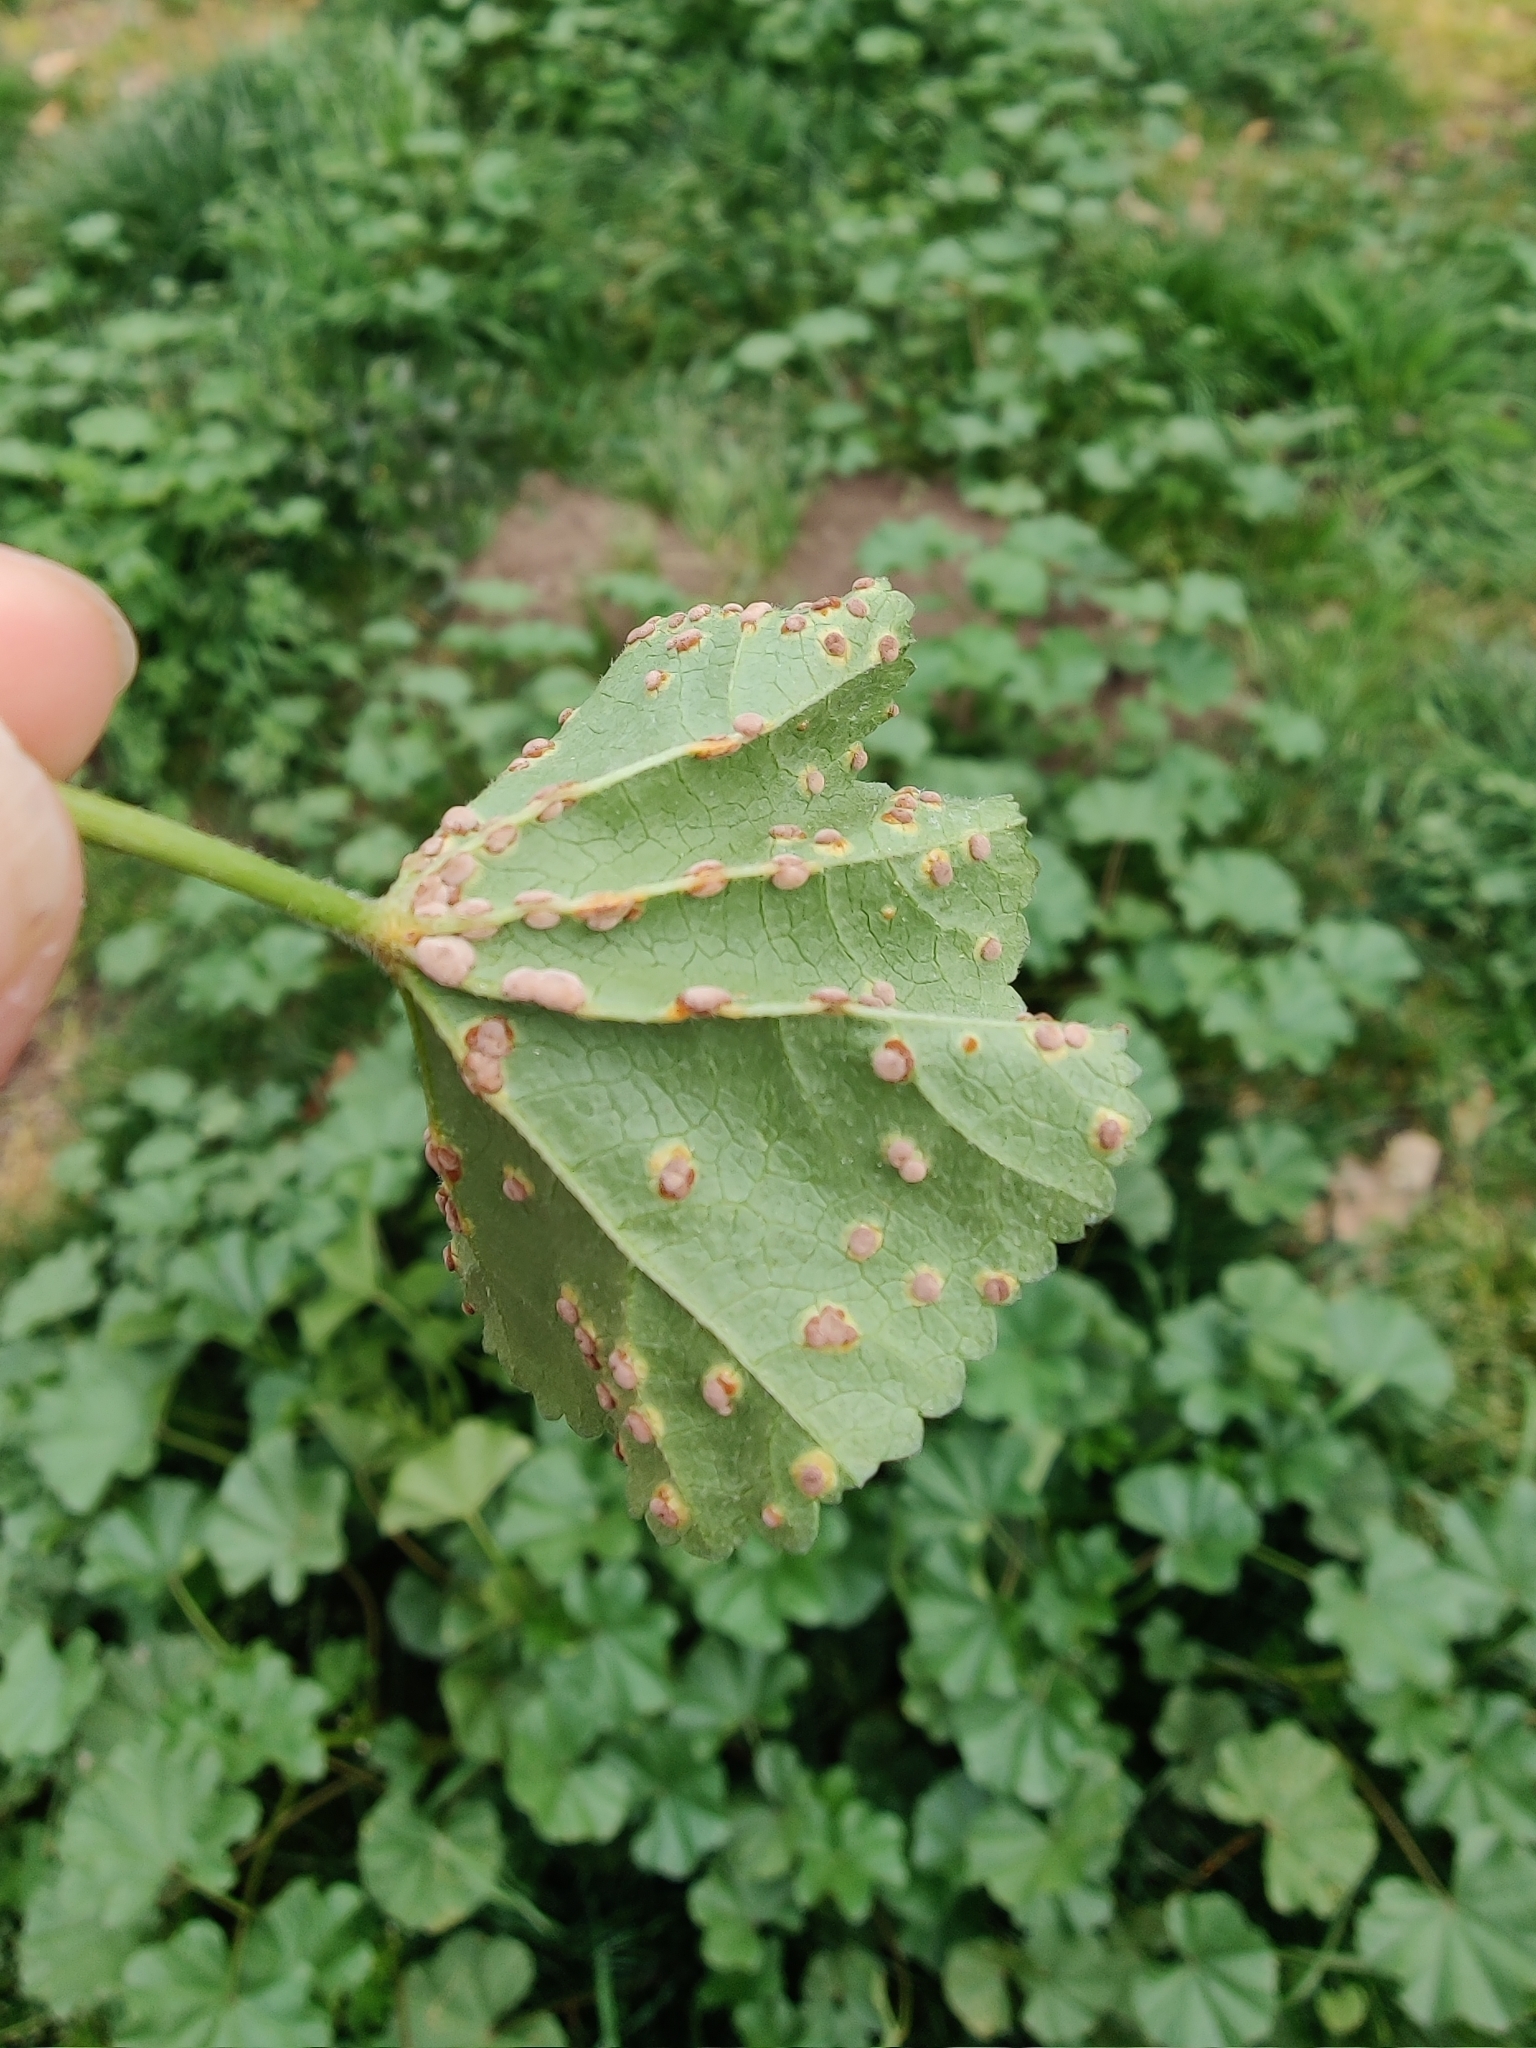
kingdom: Fungi
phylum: Basidiomycota
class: Pucciniomycetes
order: Pucciniales
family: Pucciniaceae
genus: Puccinia
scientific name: Puccinia malvacearum
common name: Hollyhock rust
